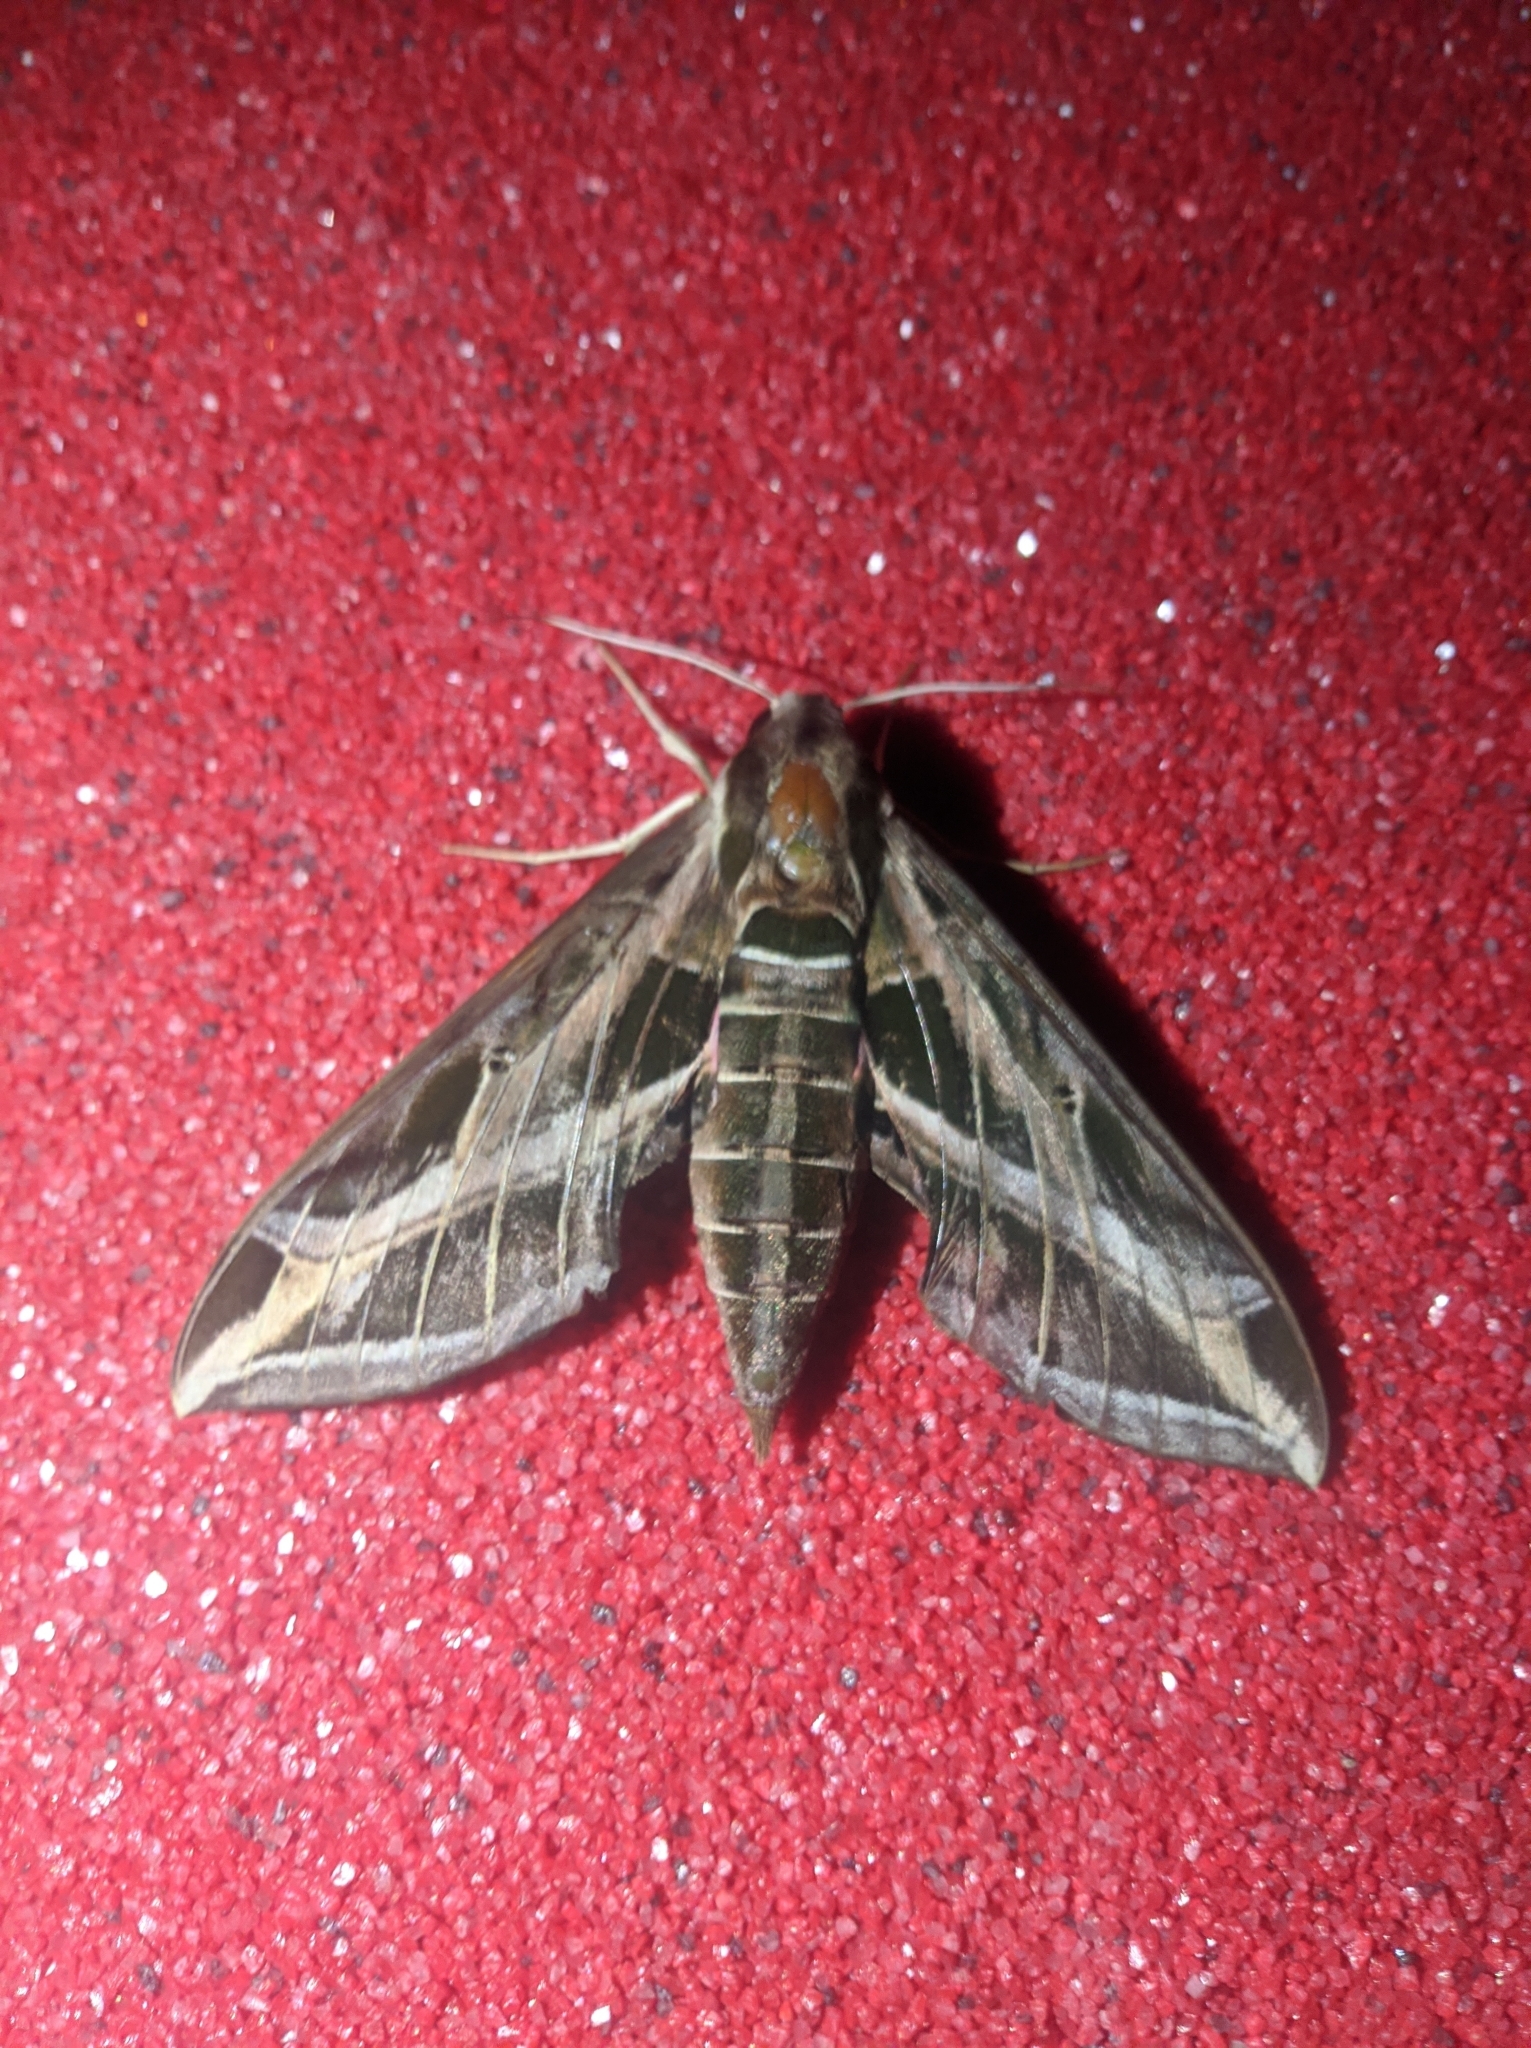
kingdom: Animalia
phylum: Arthropoda
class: Insecta
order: Lepidoptera
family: Sphingidae
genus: Eumorpha
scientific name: Eumorpha vitis
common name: Vine sphinx
